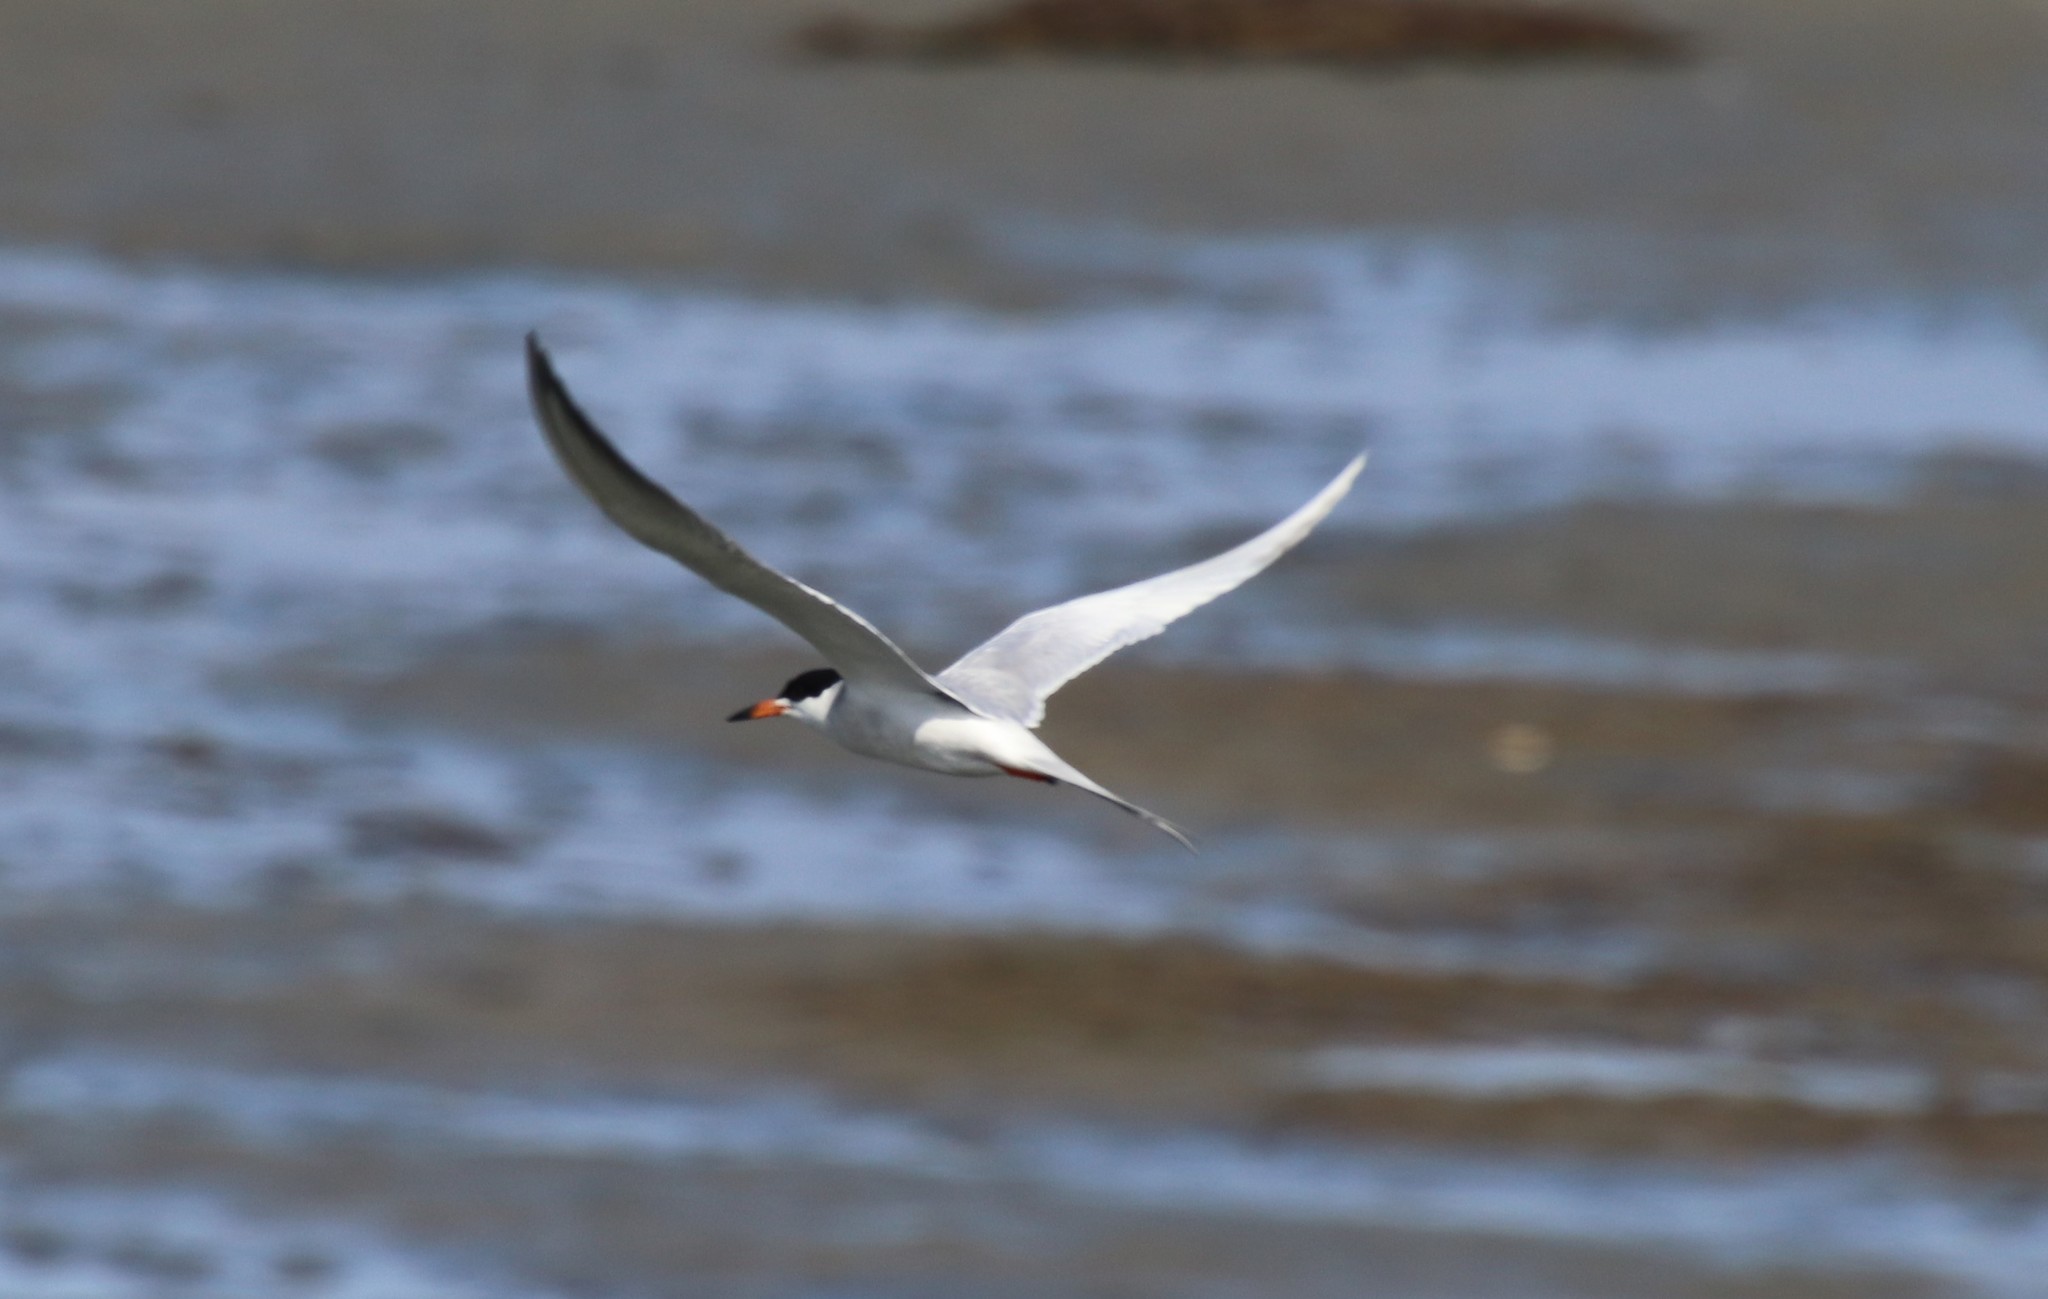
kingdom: Animalia
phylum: Chordata
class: Aves
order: Charadriiformes
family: Laridae
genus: Sterna
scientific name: Sterna forsteri
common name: Forster's tern
